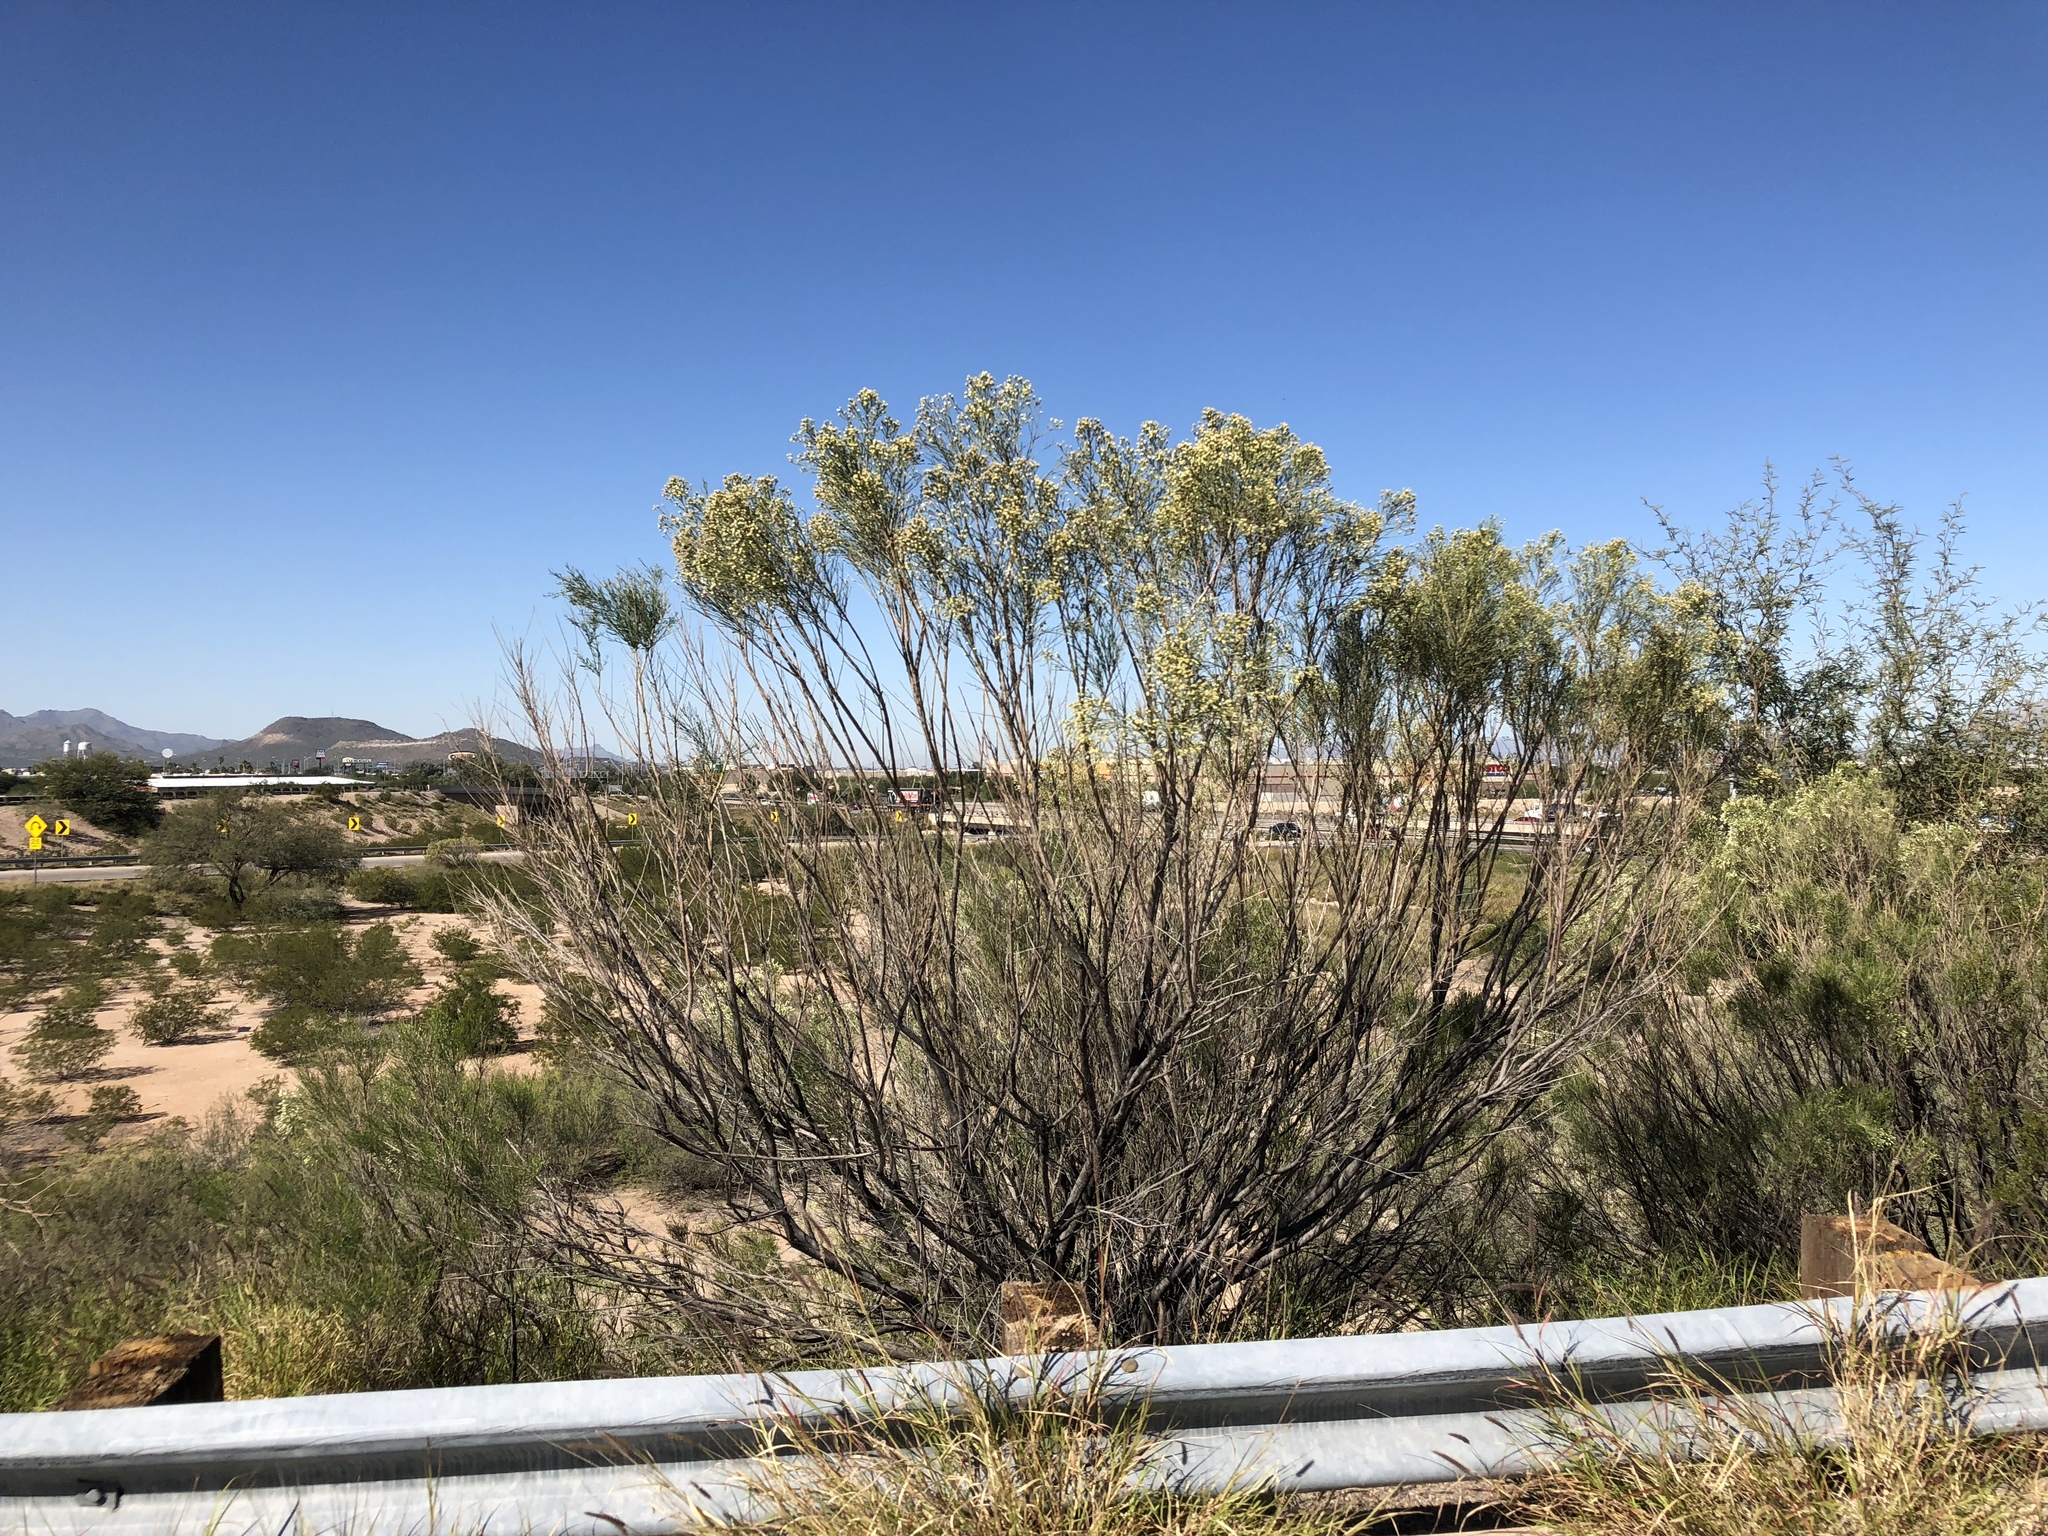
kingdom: Plantae
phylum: Tracheophyta
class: Magnoliopsida
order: Asterales
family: Asteraceae
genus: Baccharis
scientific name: Baccharis sarothroides
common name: Desert-broom
